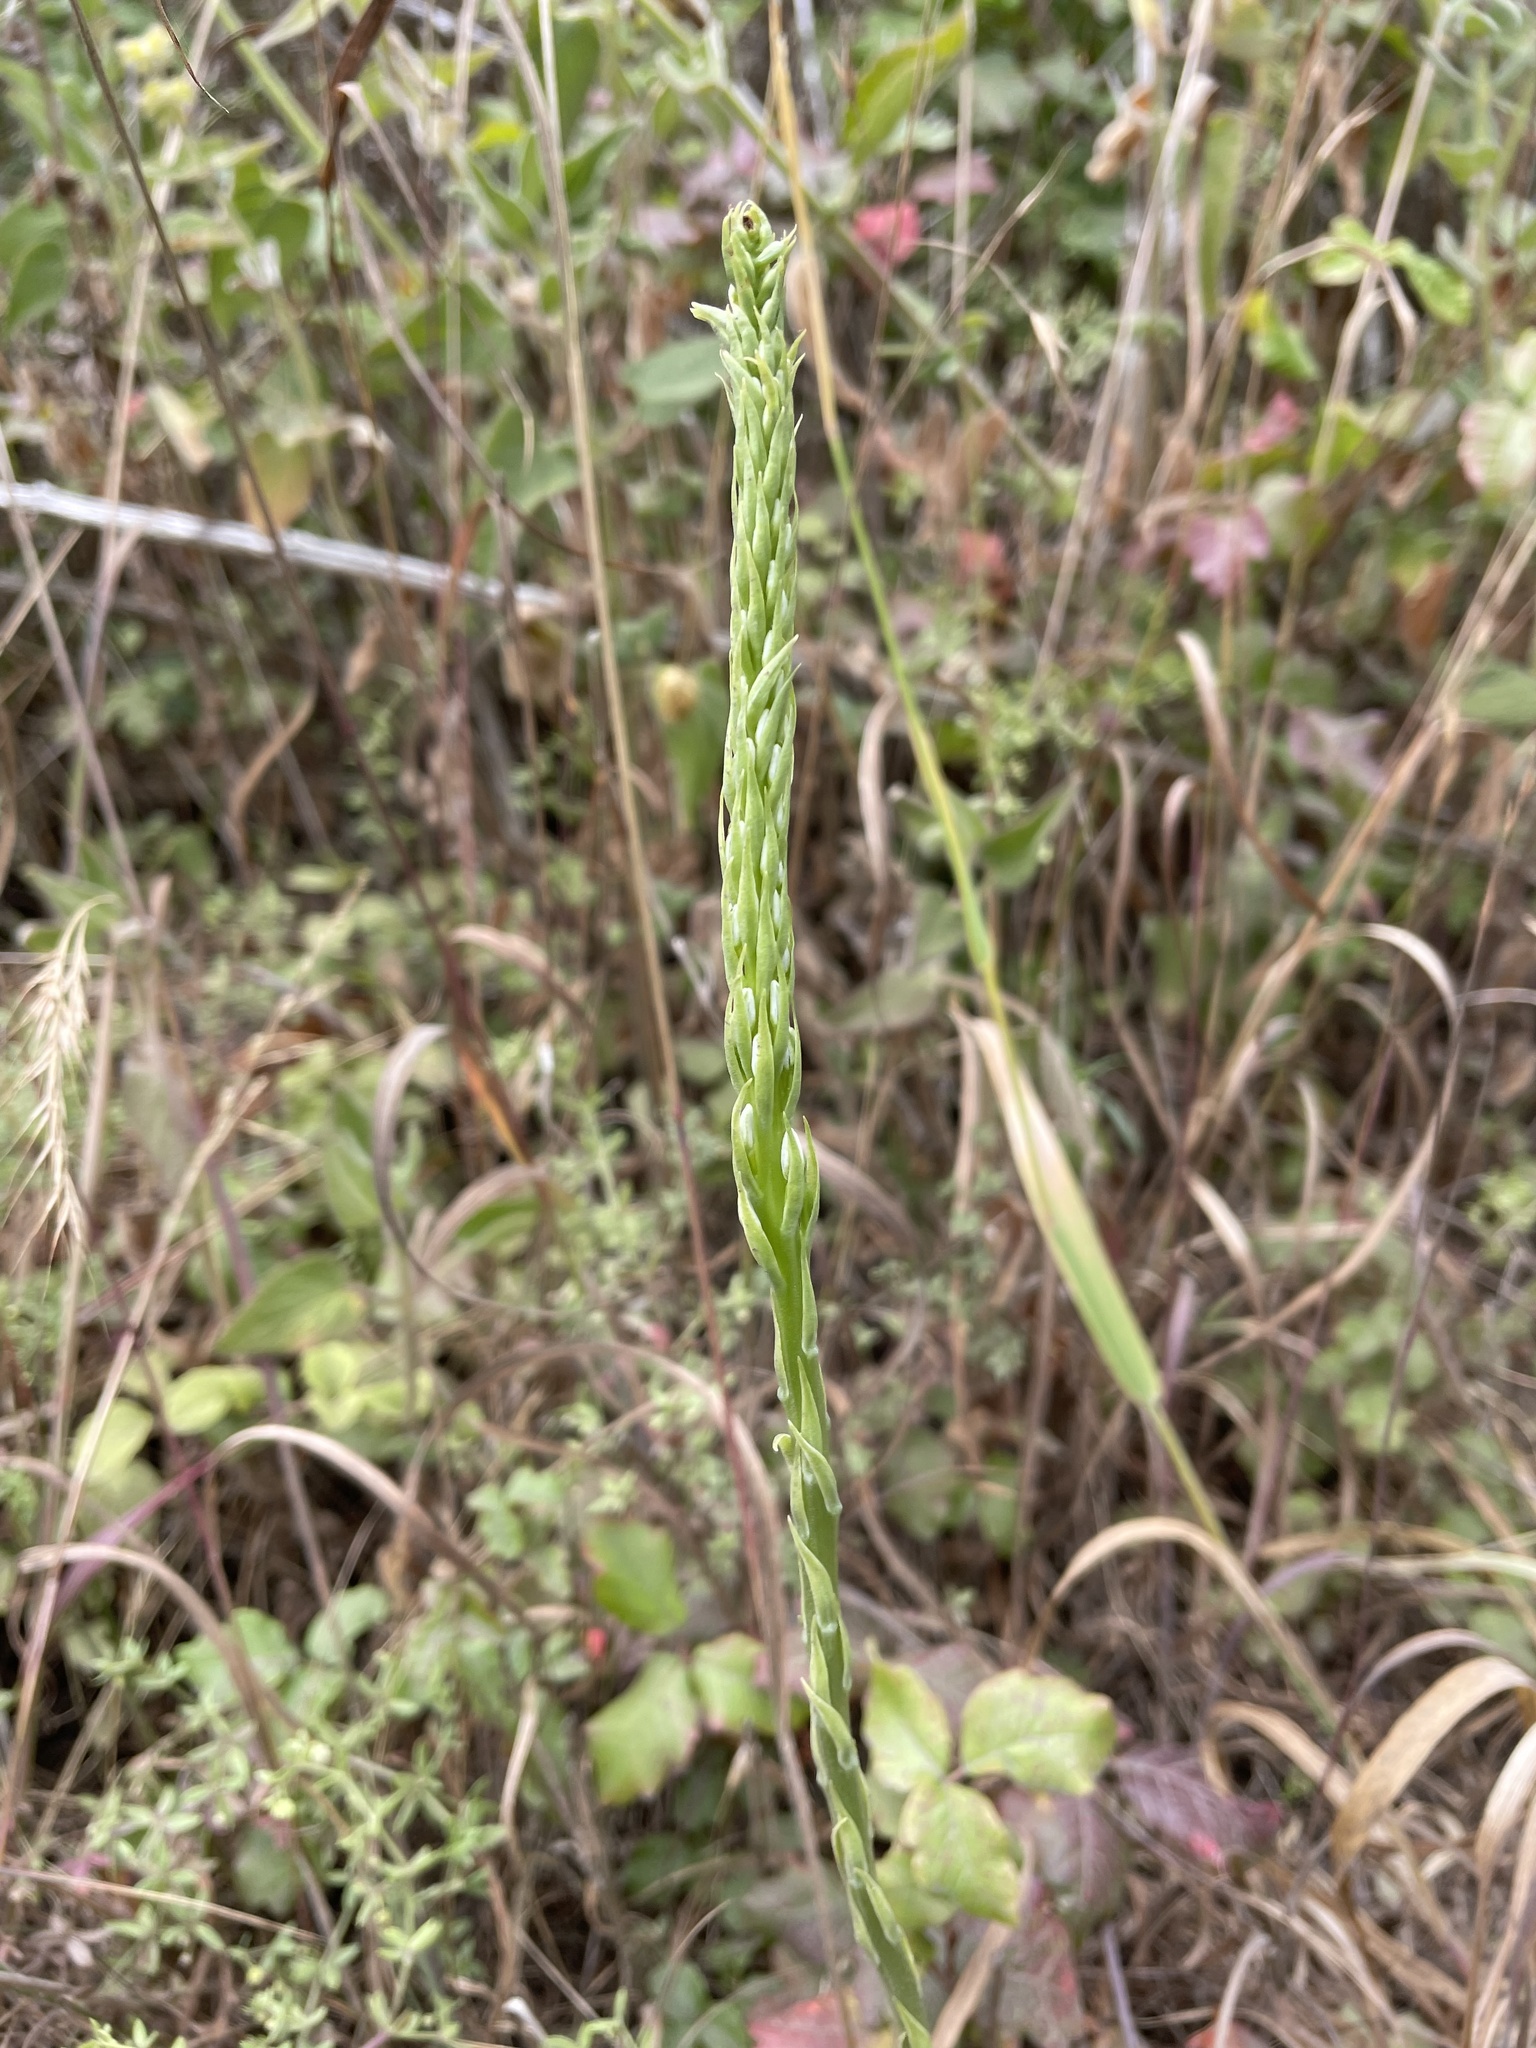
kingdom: Plantae
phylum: Tracheophyta
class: Liliopsida
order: Asparagales
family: Orchidaceae
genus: Platanthera
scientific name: Platanthera elegans
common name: Coast piperia
